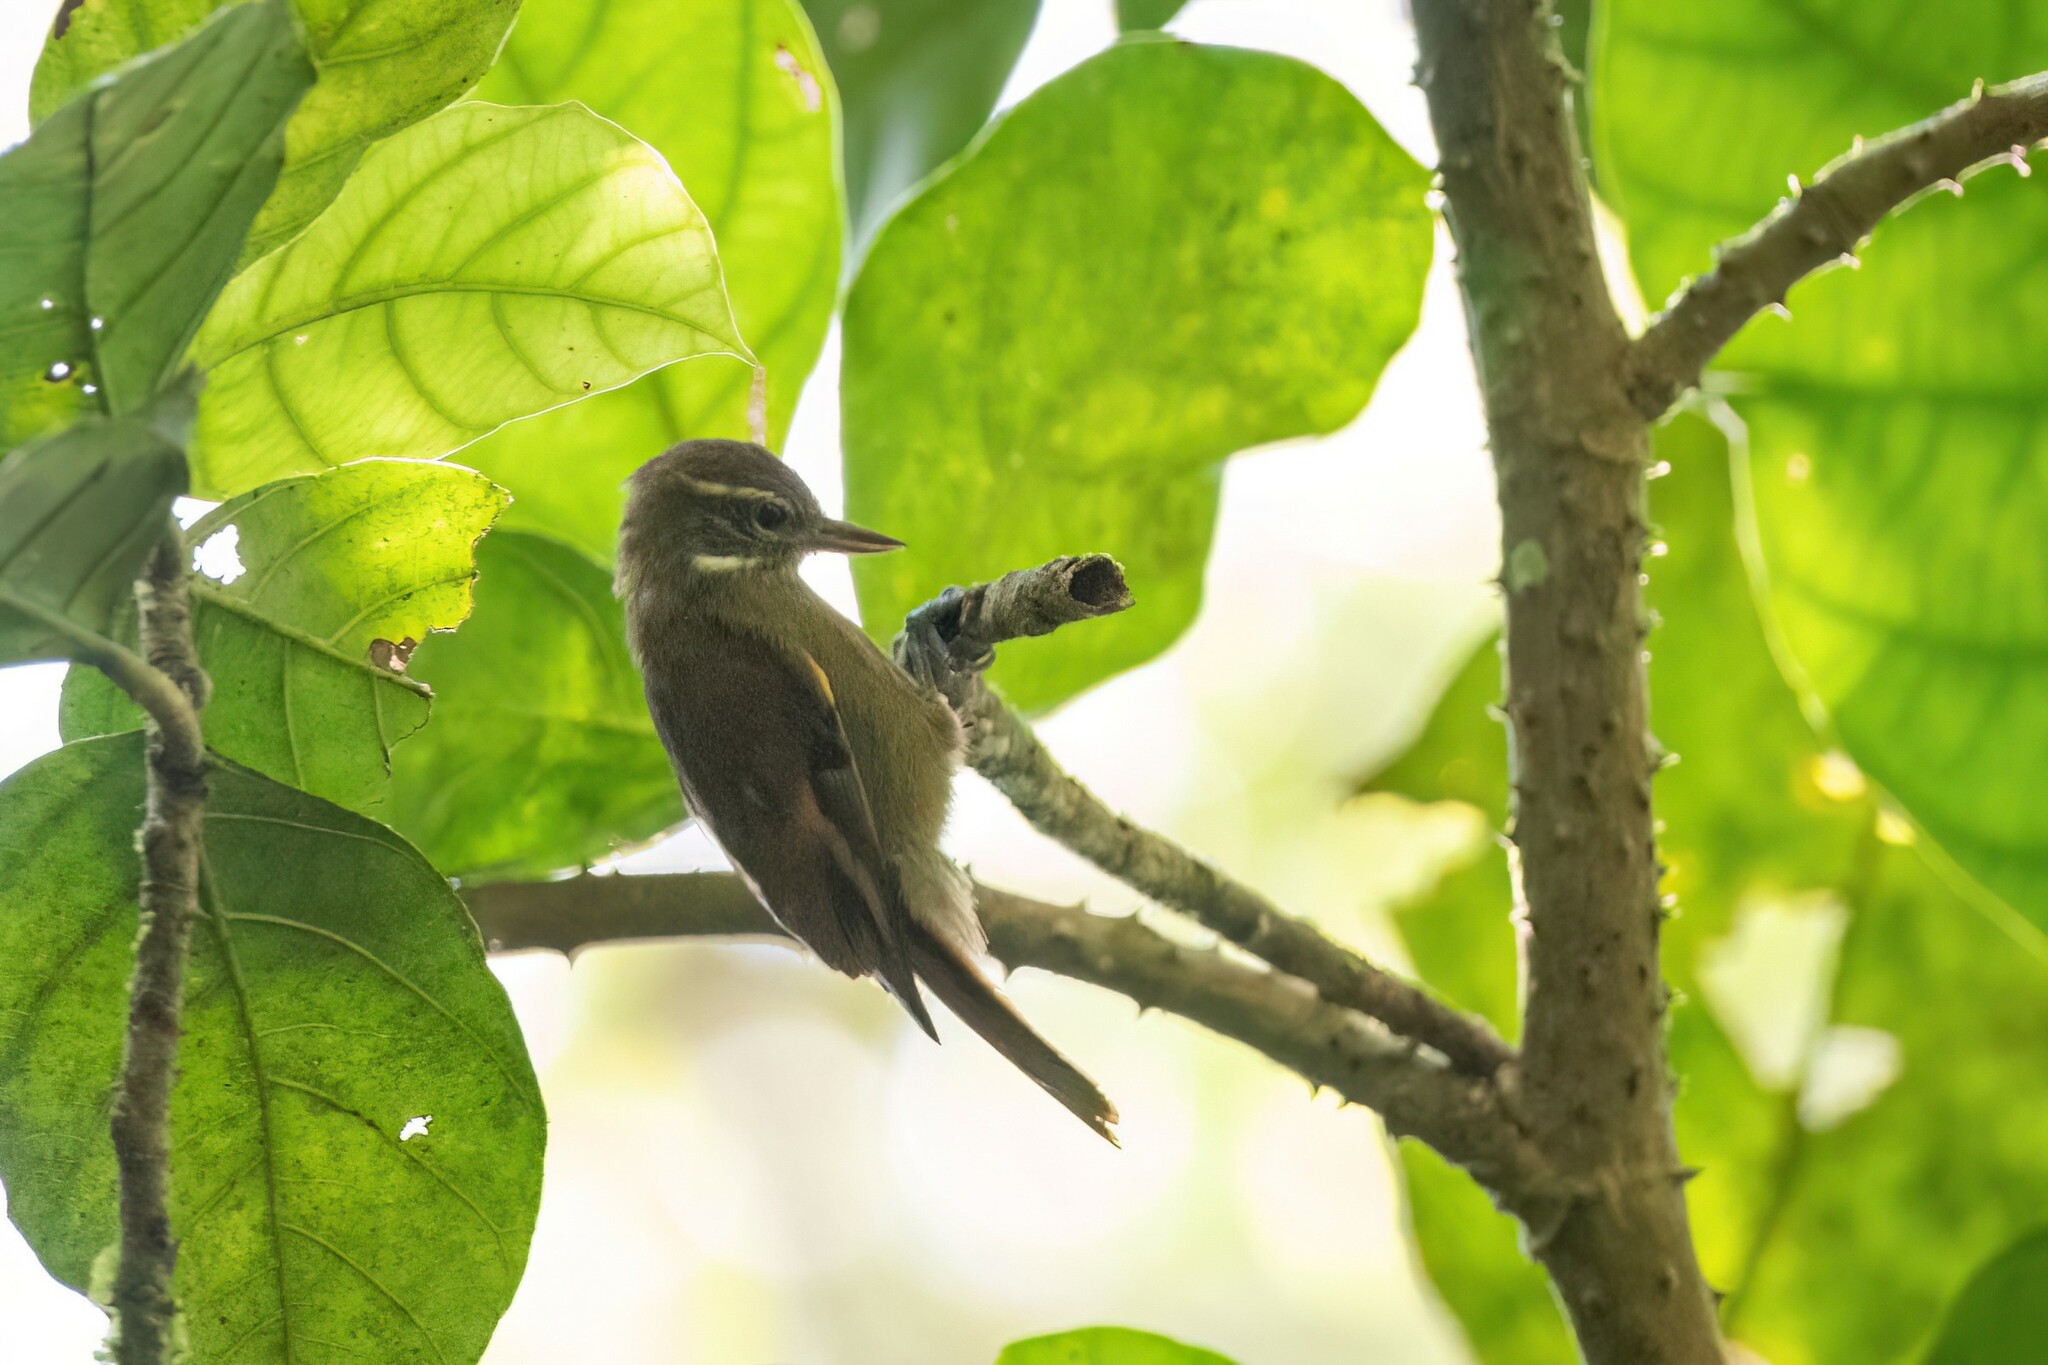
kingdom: Animalia
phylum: Chordata
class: Aves
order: Passeriformes
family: Furnariidae
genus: Xenops
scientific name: Xenops minutus
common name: Plain xenops
